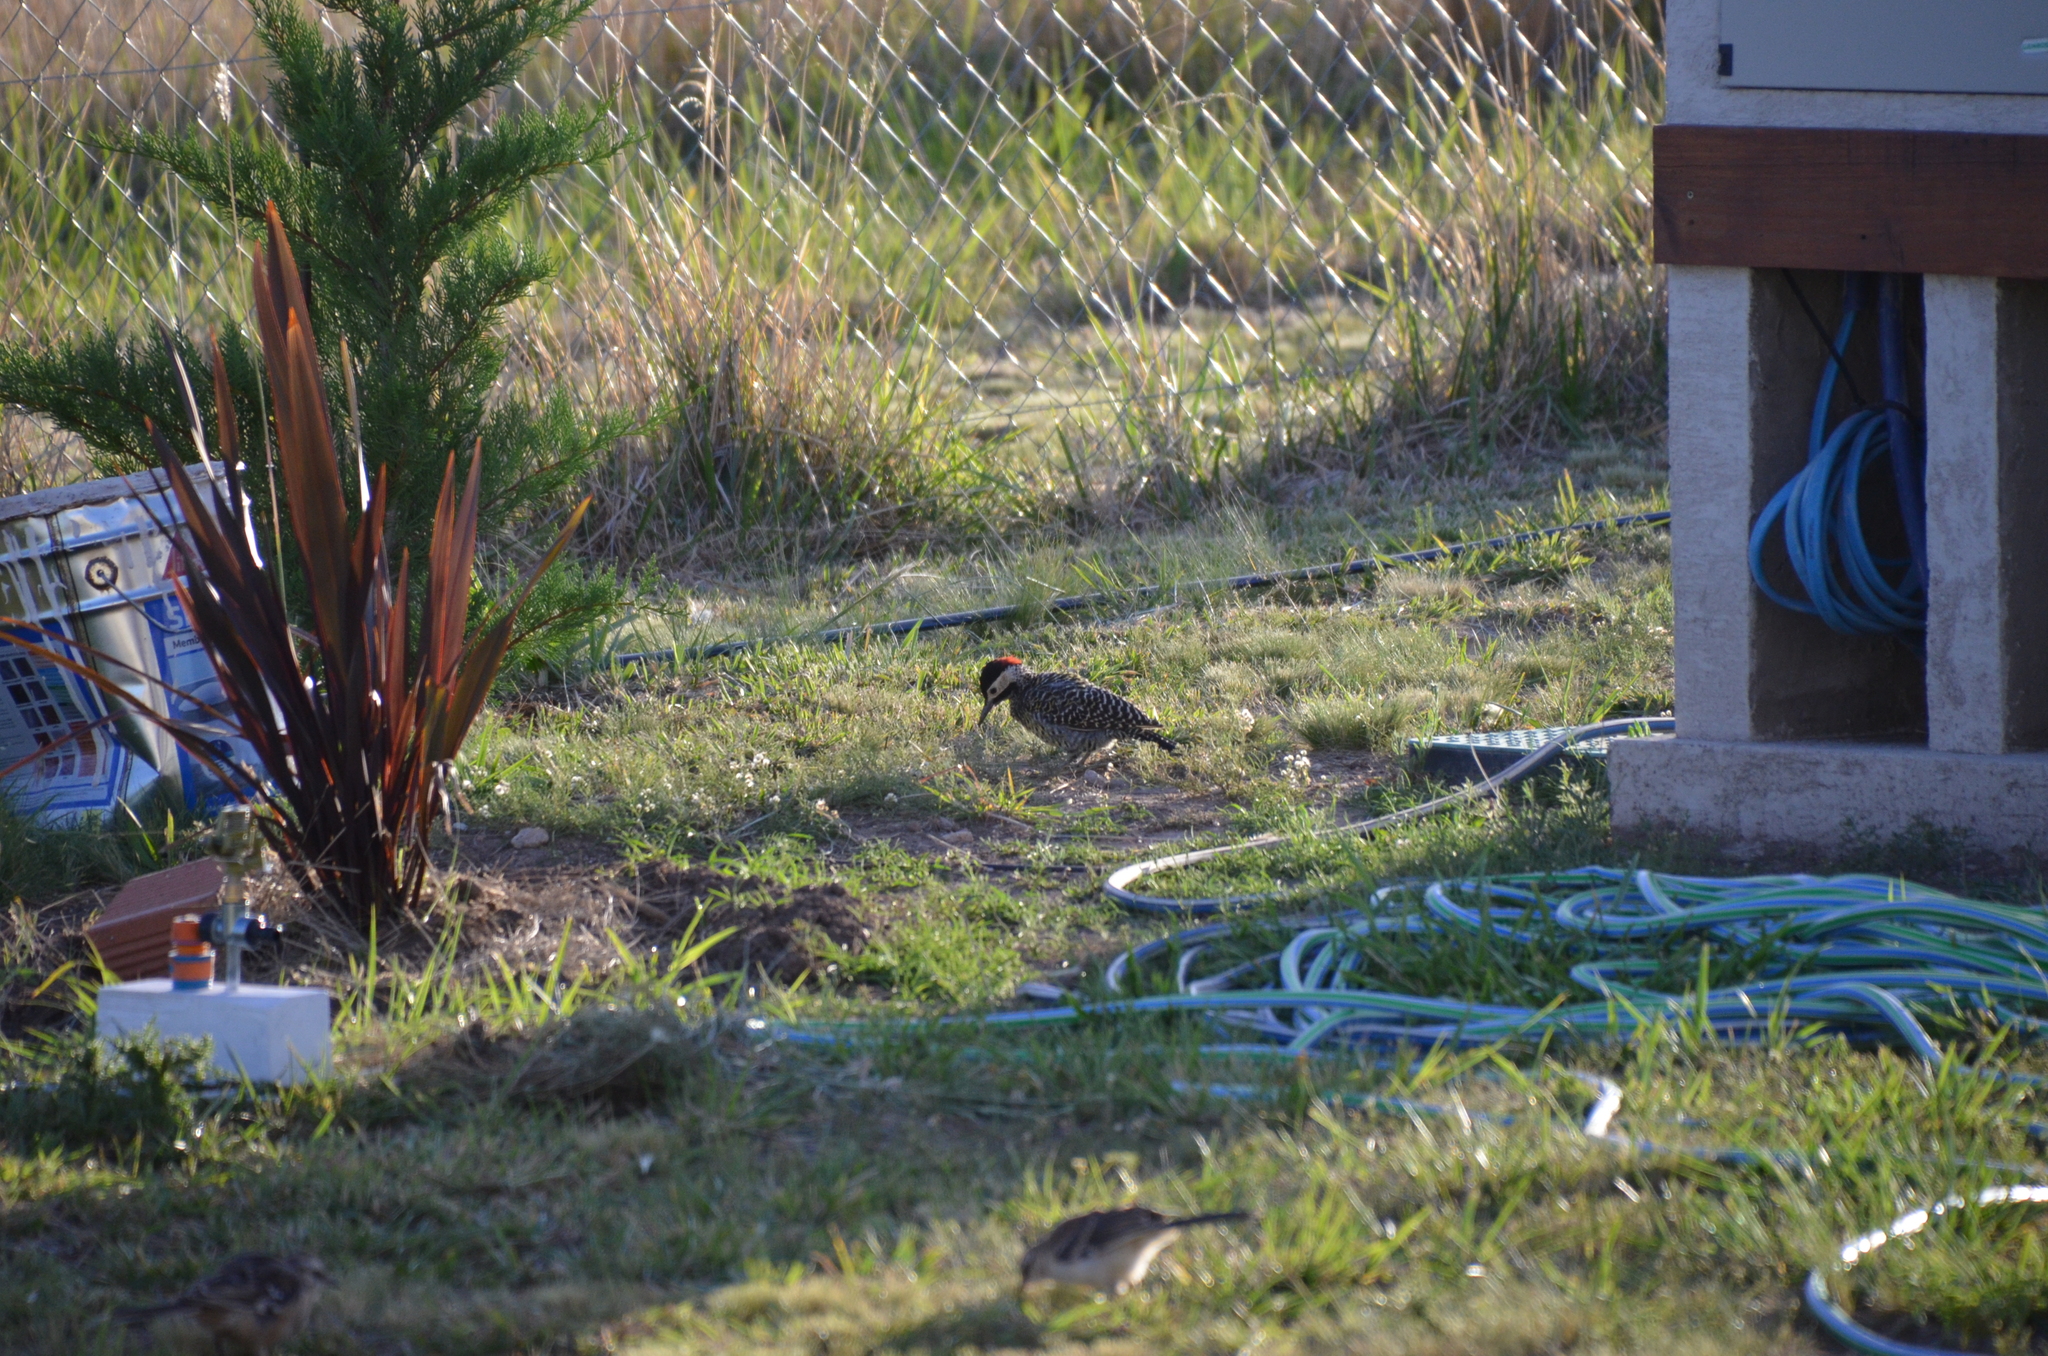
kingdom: Animalia
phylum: Chordata
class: Aves
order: Piciformes
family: Picidae
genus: Colaptes
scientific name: Colaptes melanochloros
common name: Green-barred woodpecker
